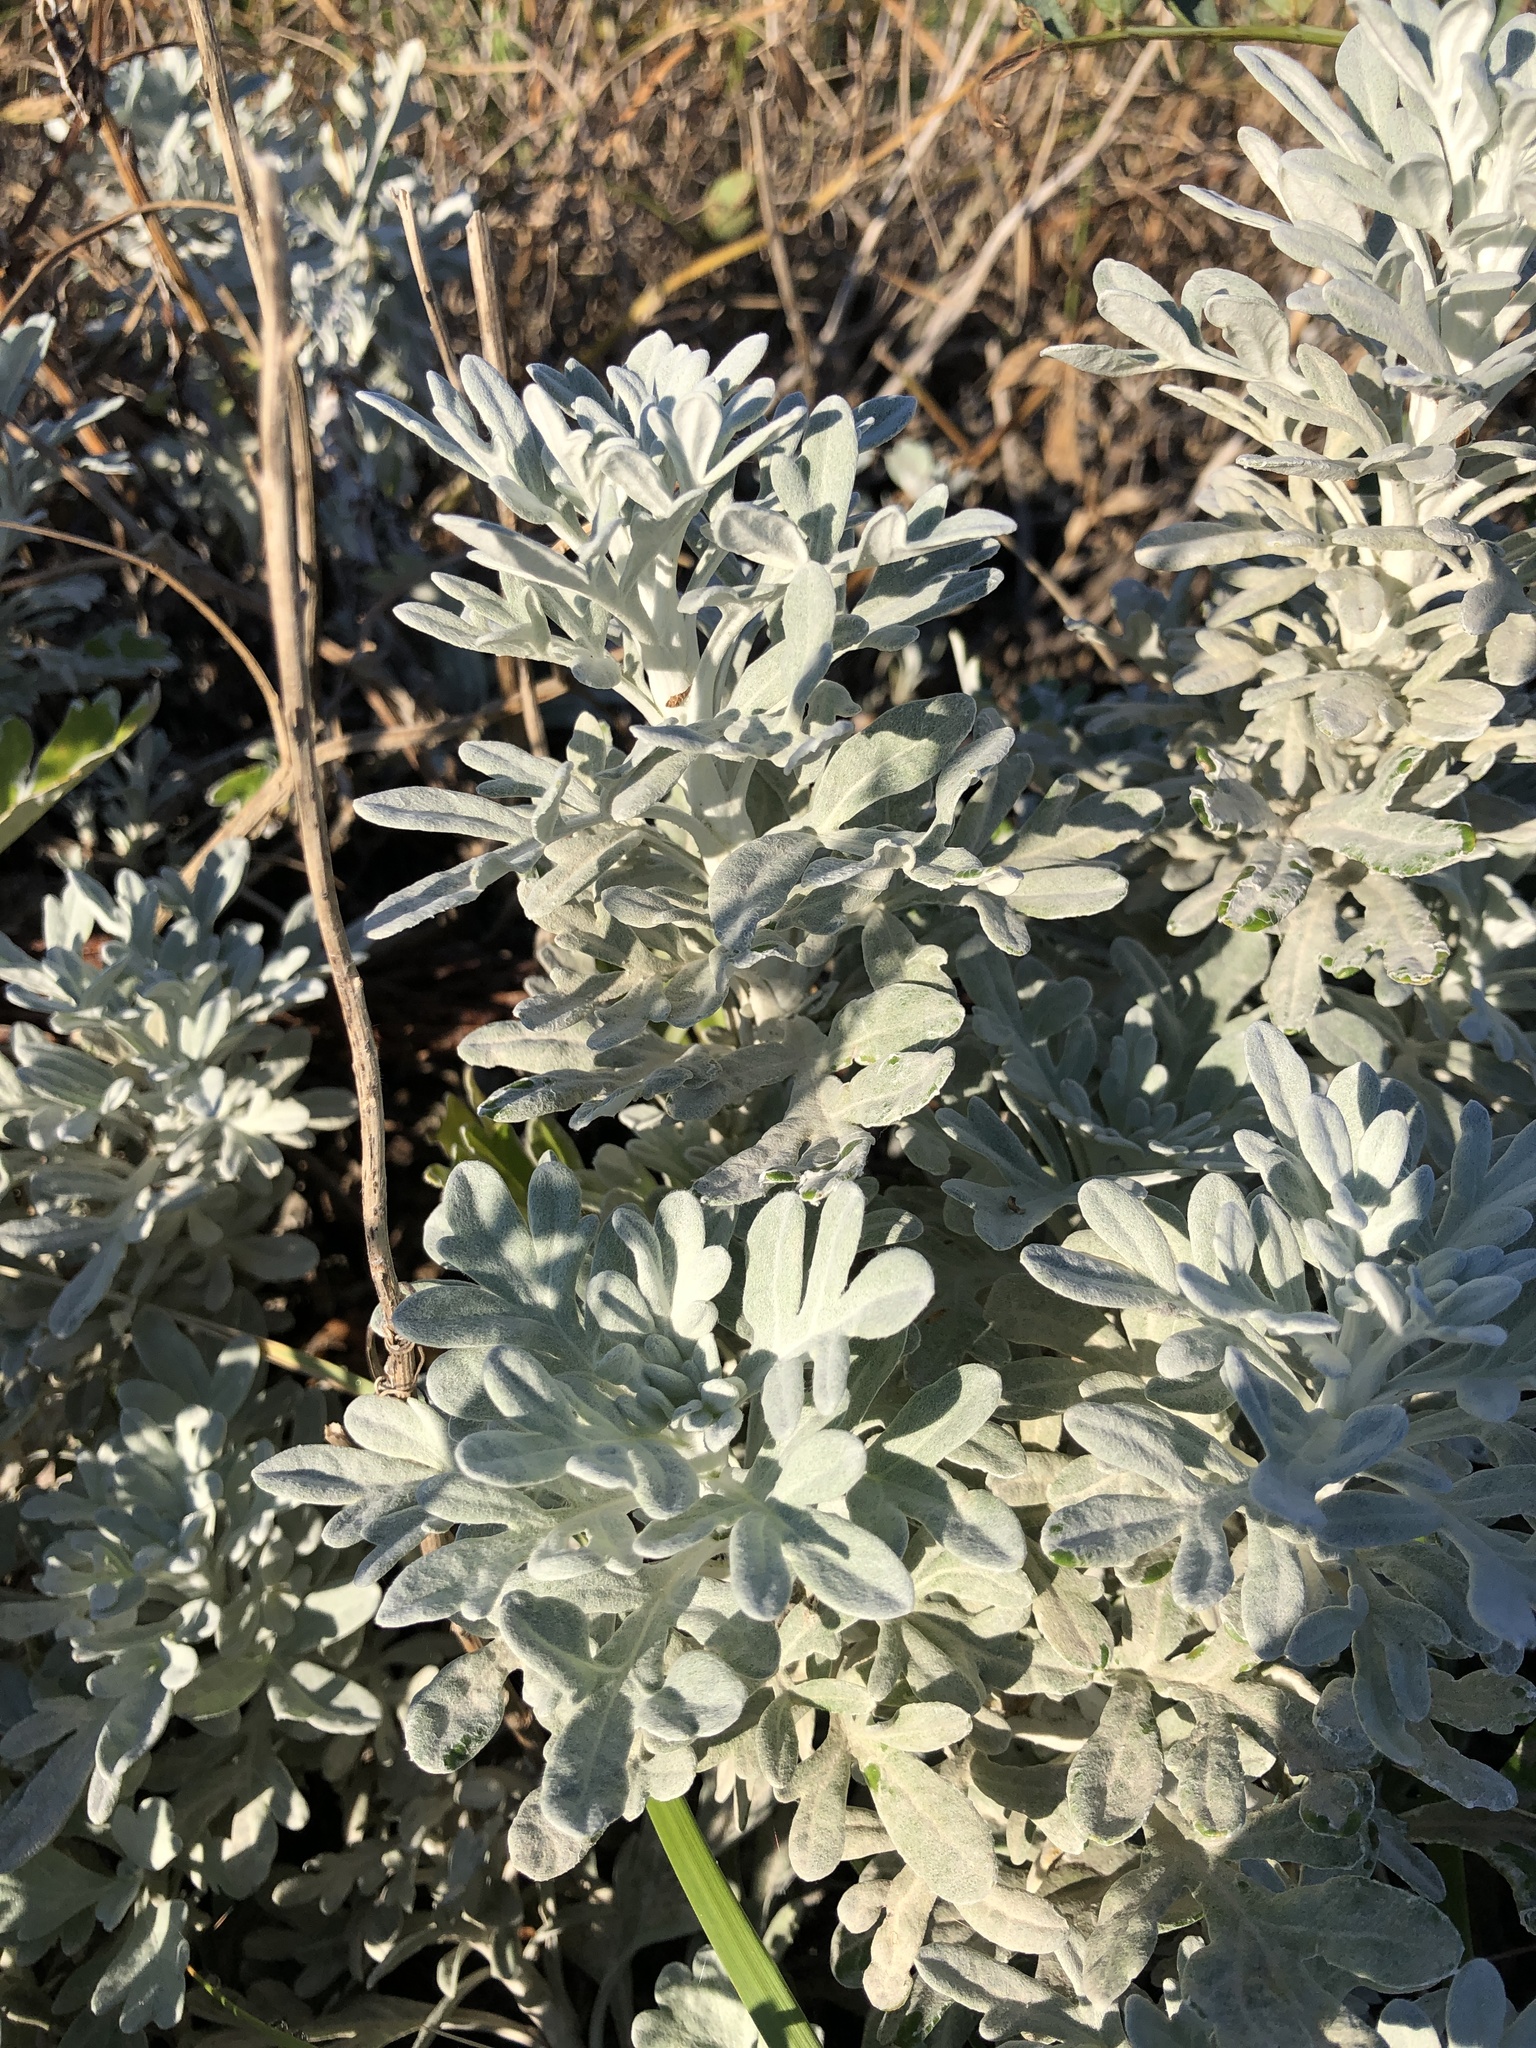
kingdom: Plantae
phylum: Tracheophyta
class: Magnoliopsida
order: Asterales
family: Asteraceae
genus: Artemisia
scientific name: Artemisia stelleriana
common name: Beach wormwood
